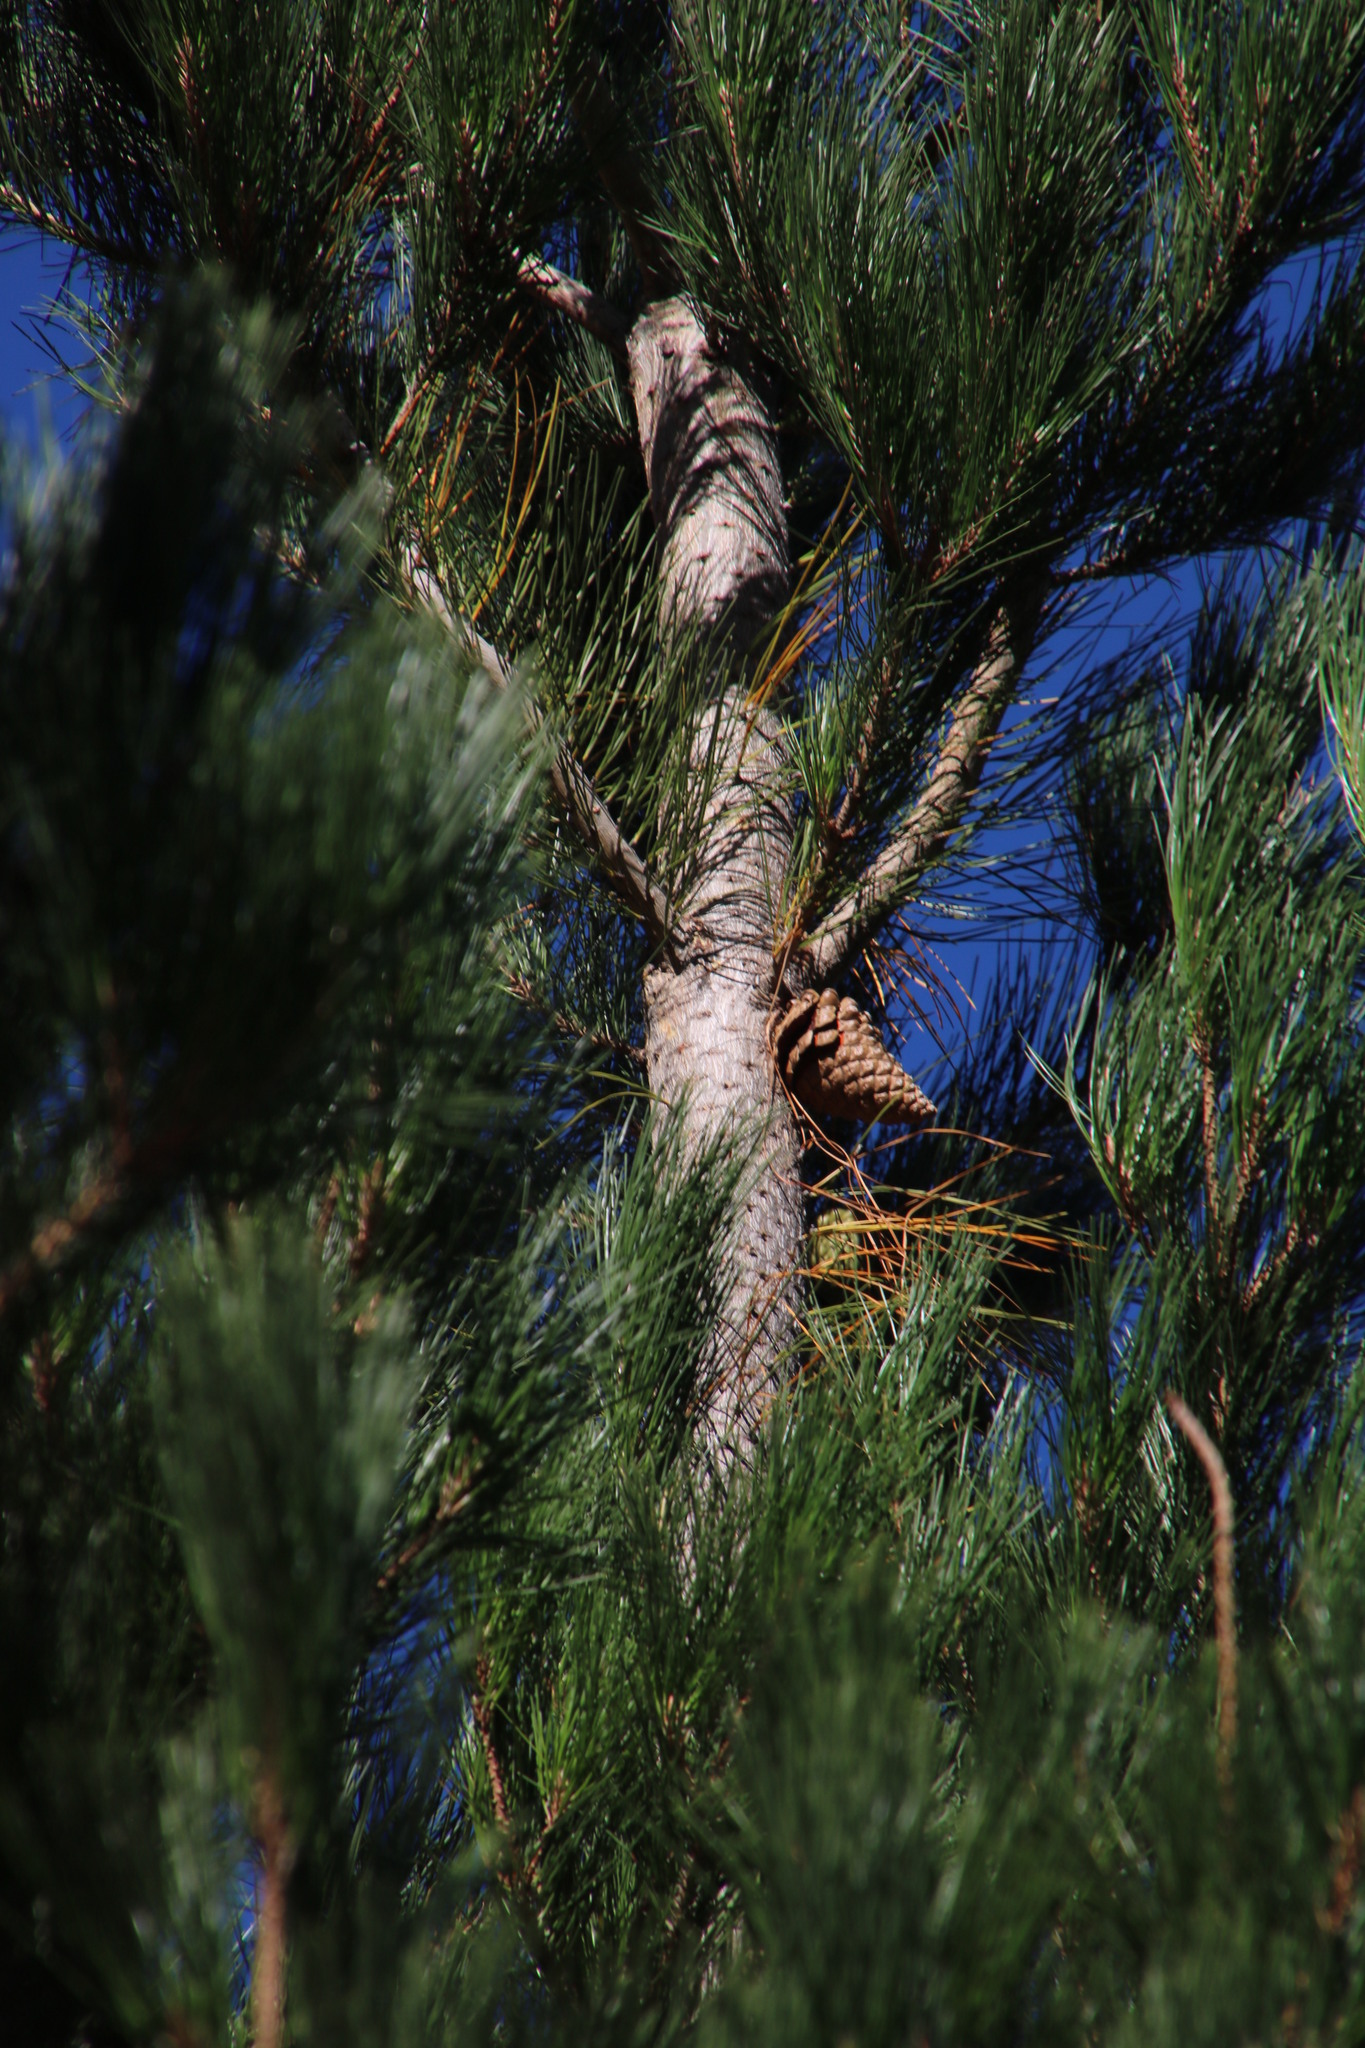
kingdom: Plantae
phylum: Tracheophyta
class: Pinopsida
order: Pinales
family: Pinaceae
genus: Pinus
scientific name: Pinus radiata
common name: Monterey pine
